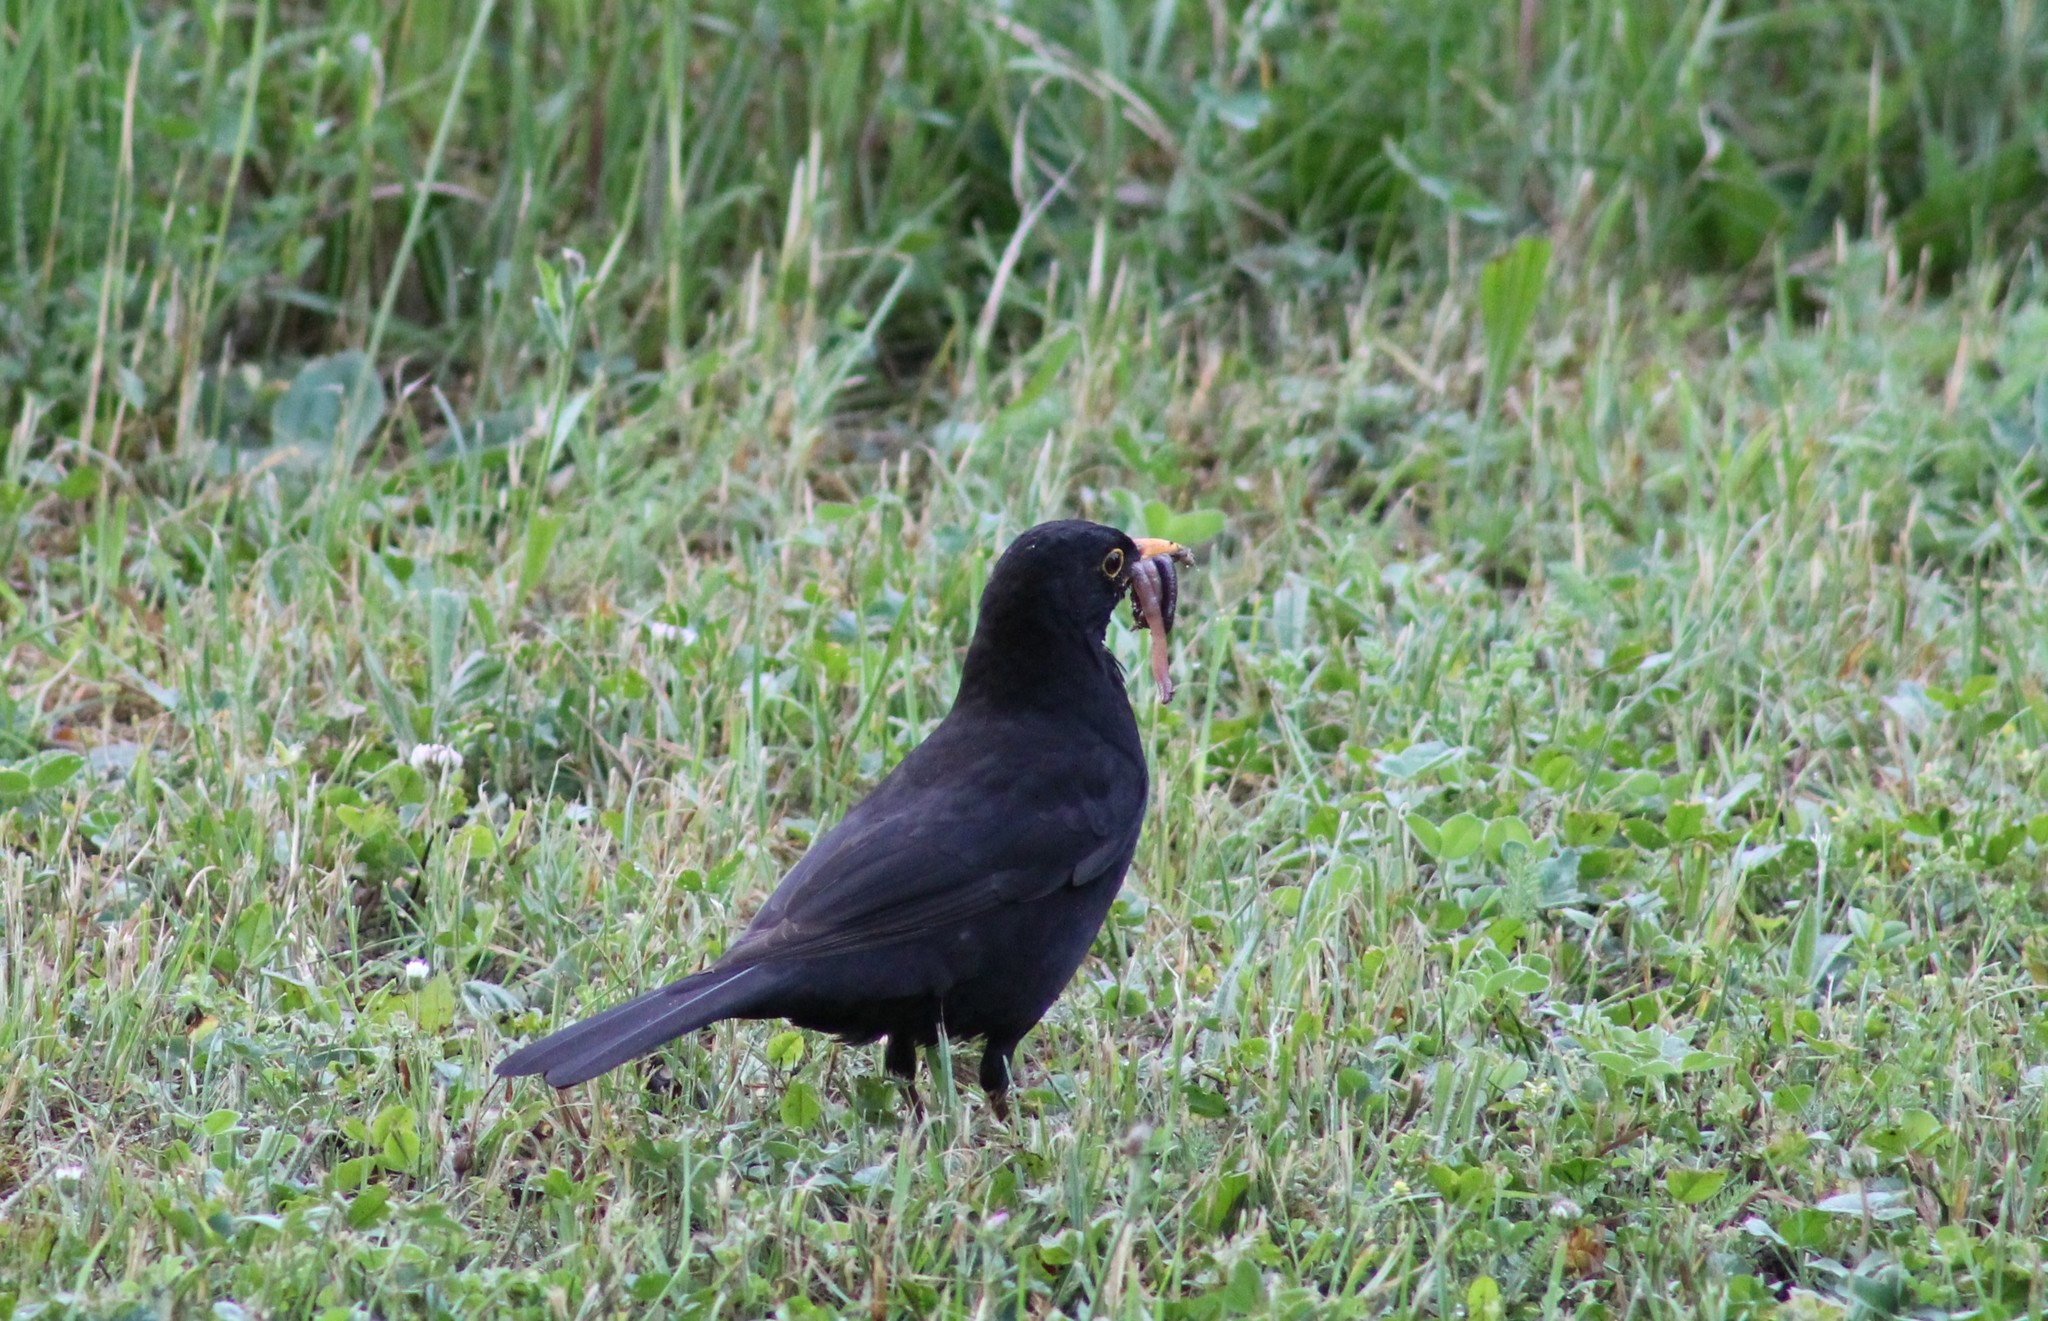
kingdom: Animalia
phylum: Chordata
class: Aves
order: Passeriformes
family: Turdidae
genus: Turdus
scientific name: Turdus merula
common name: Common blackbird
